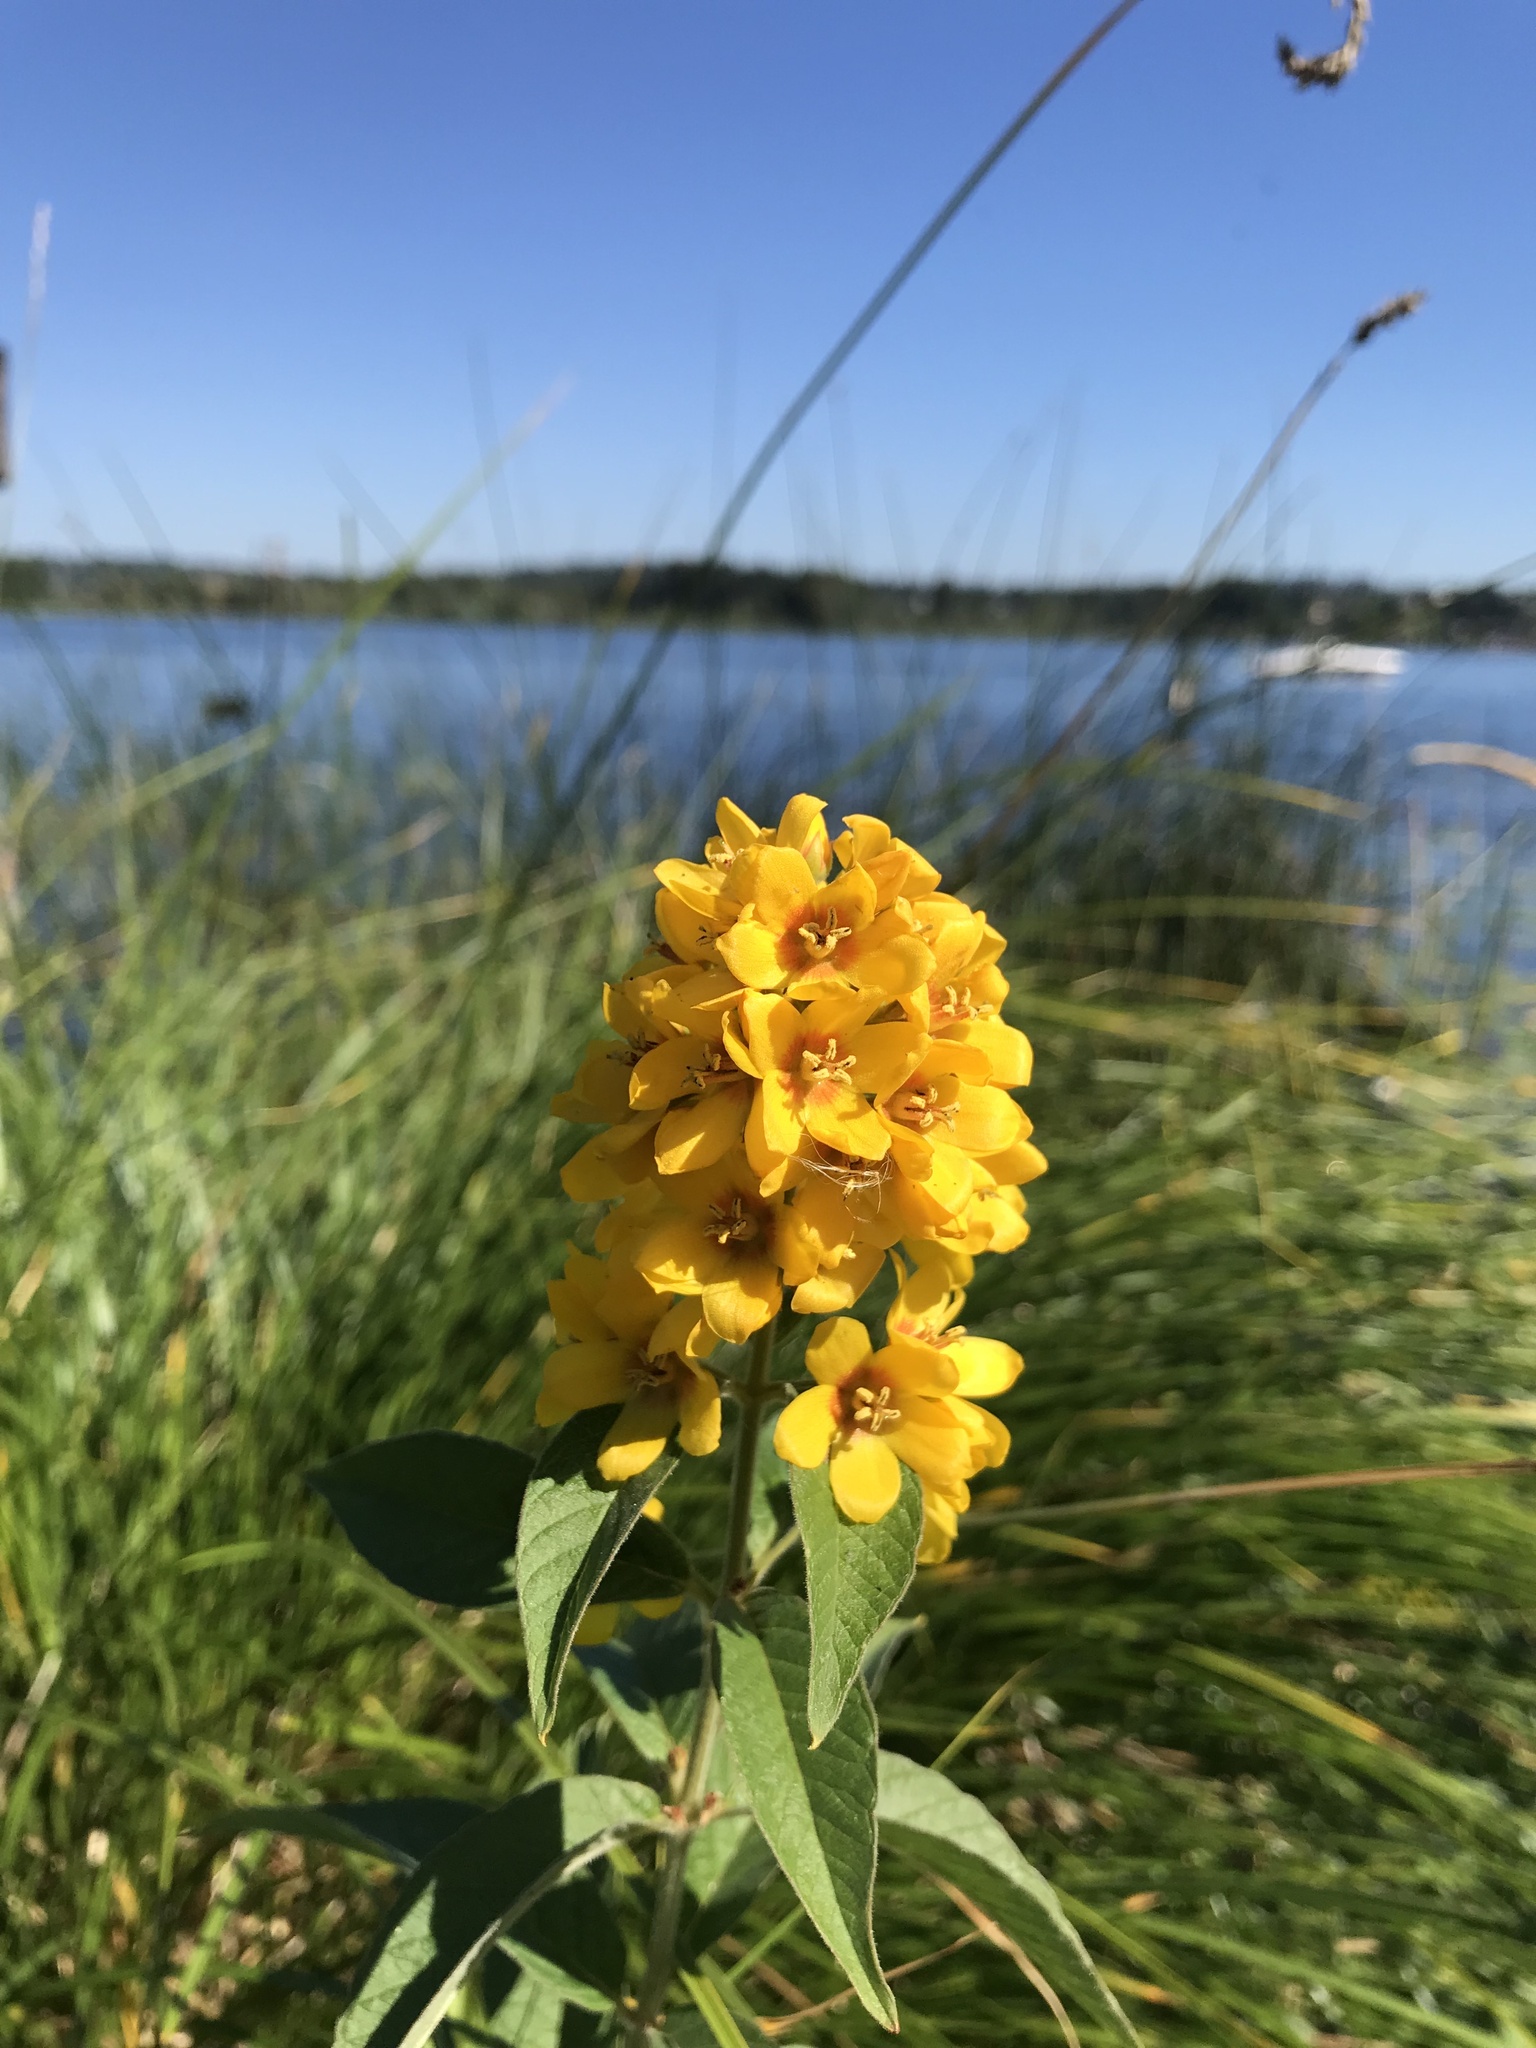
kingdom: Plantae
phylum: Tracheophyta
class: Magnoliopsida
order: Ericales
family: Primulaceae
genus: Lysimachia
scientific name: Lysimachia vulgaris
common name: Yellow loosestrife
